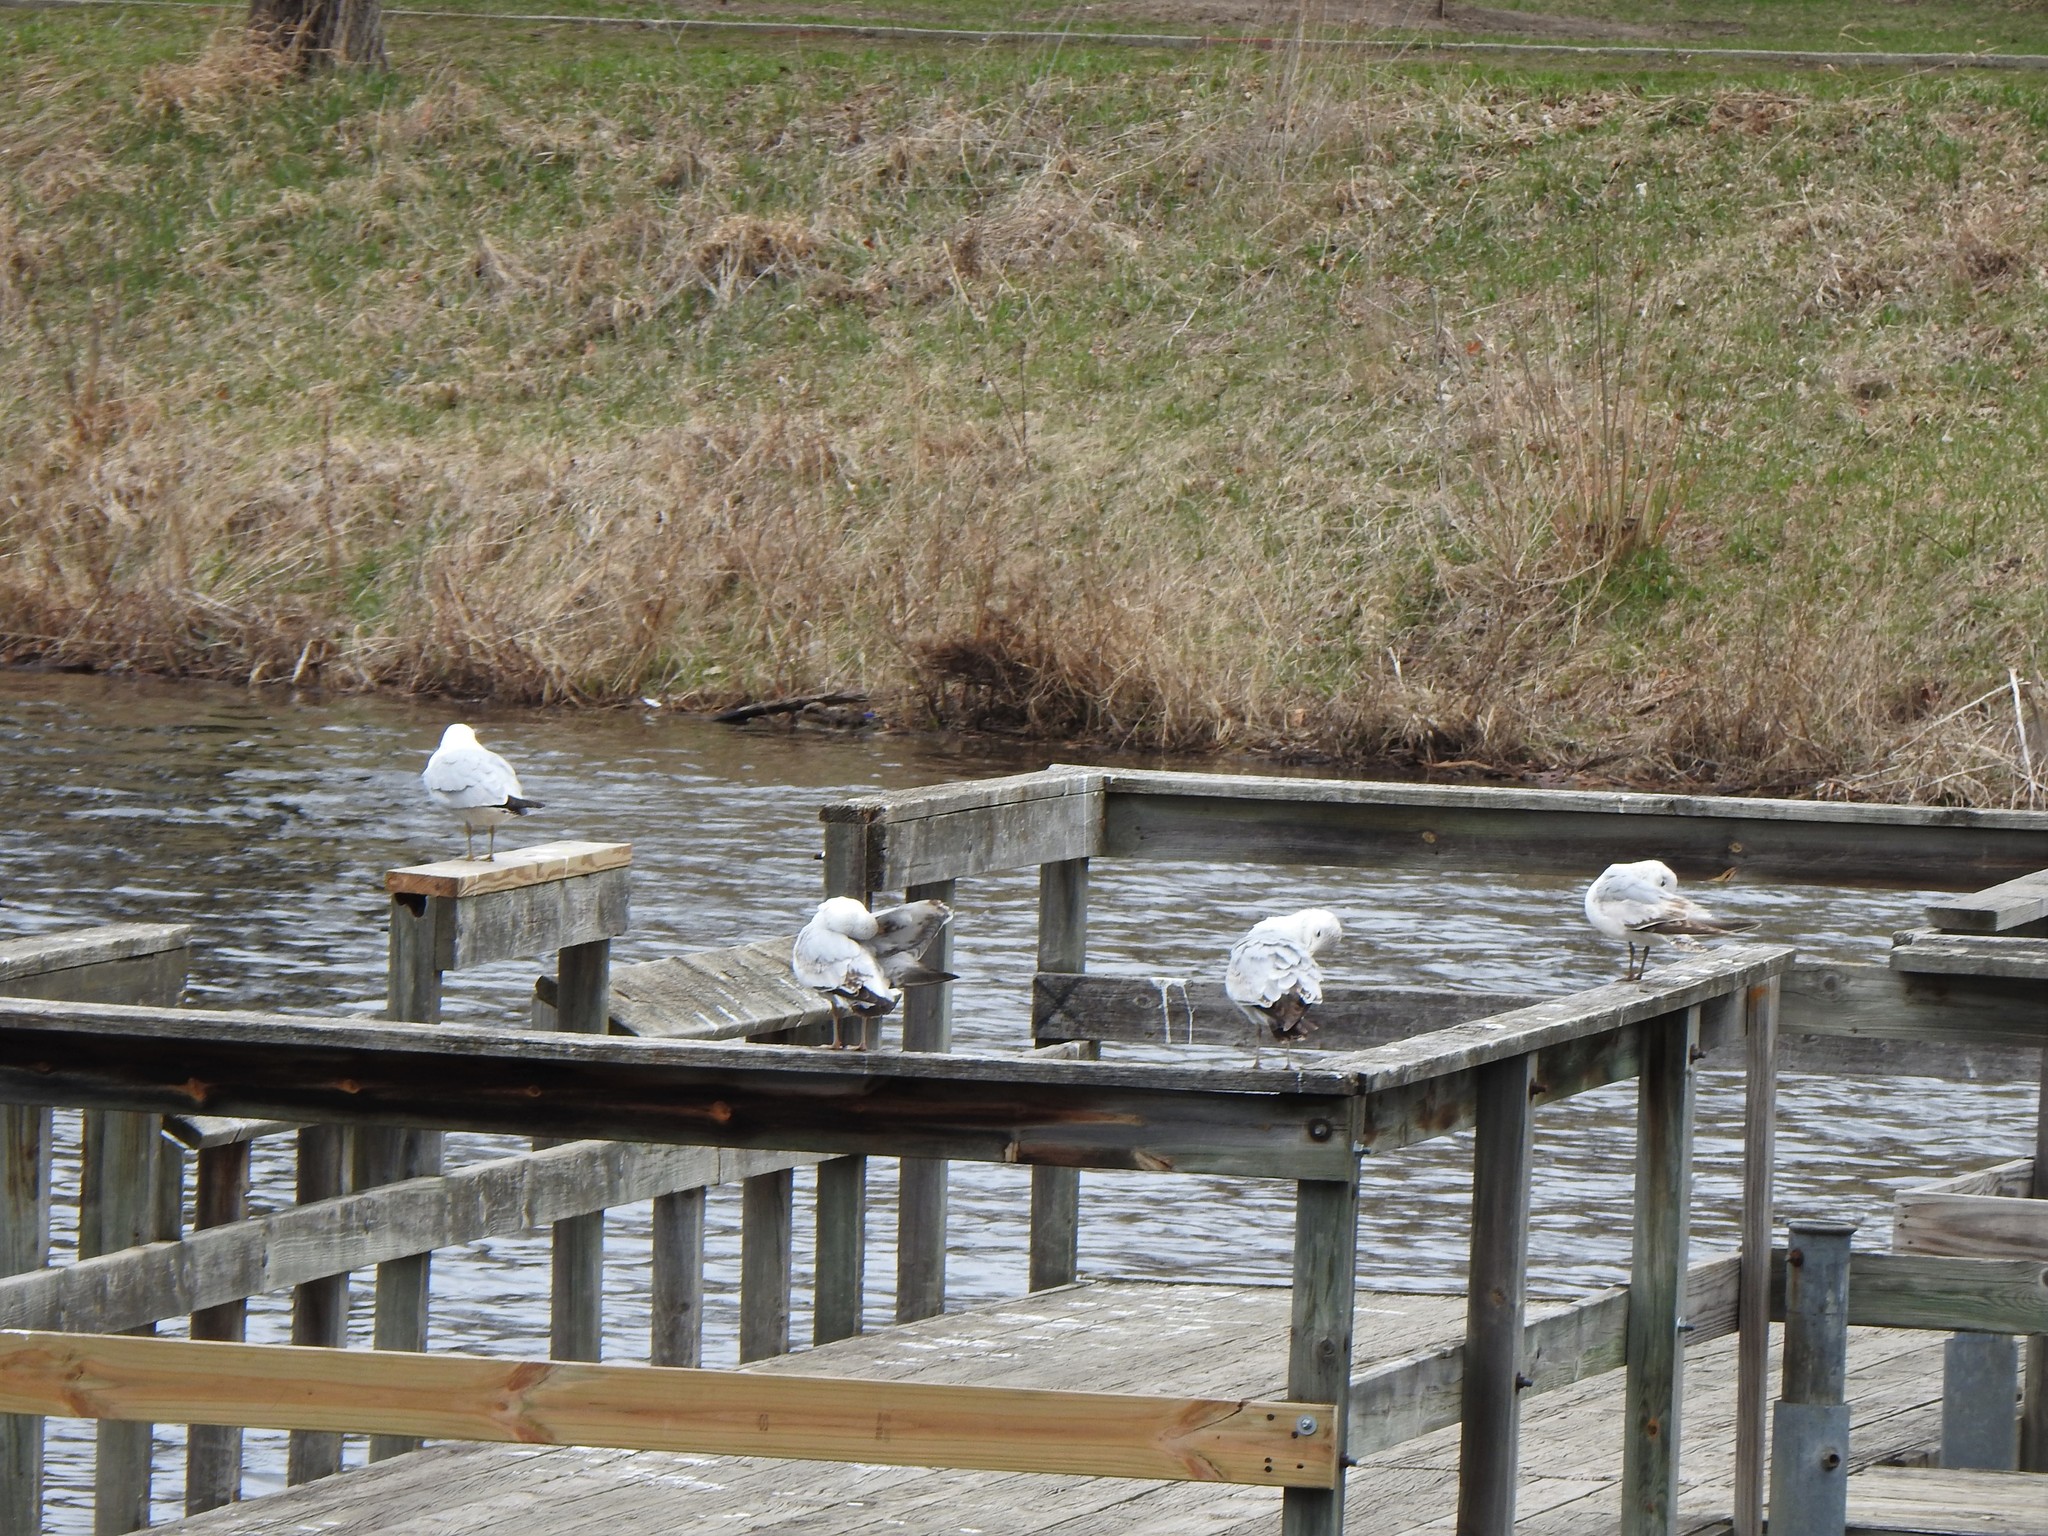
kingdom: Animalia
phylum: Chordata
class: Aves
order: Charadriiformes
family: Laridae
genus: Larus
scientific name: Larus delawarensis
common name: Ring-billed gull
